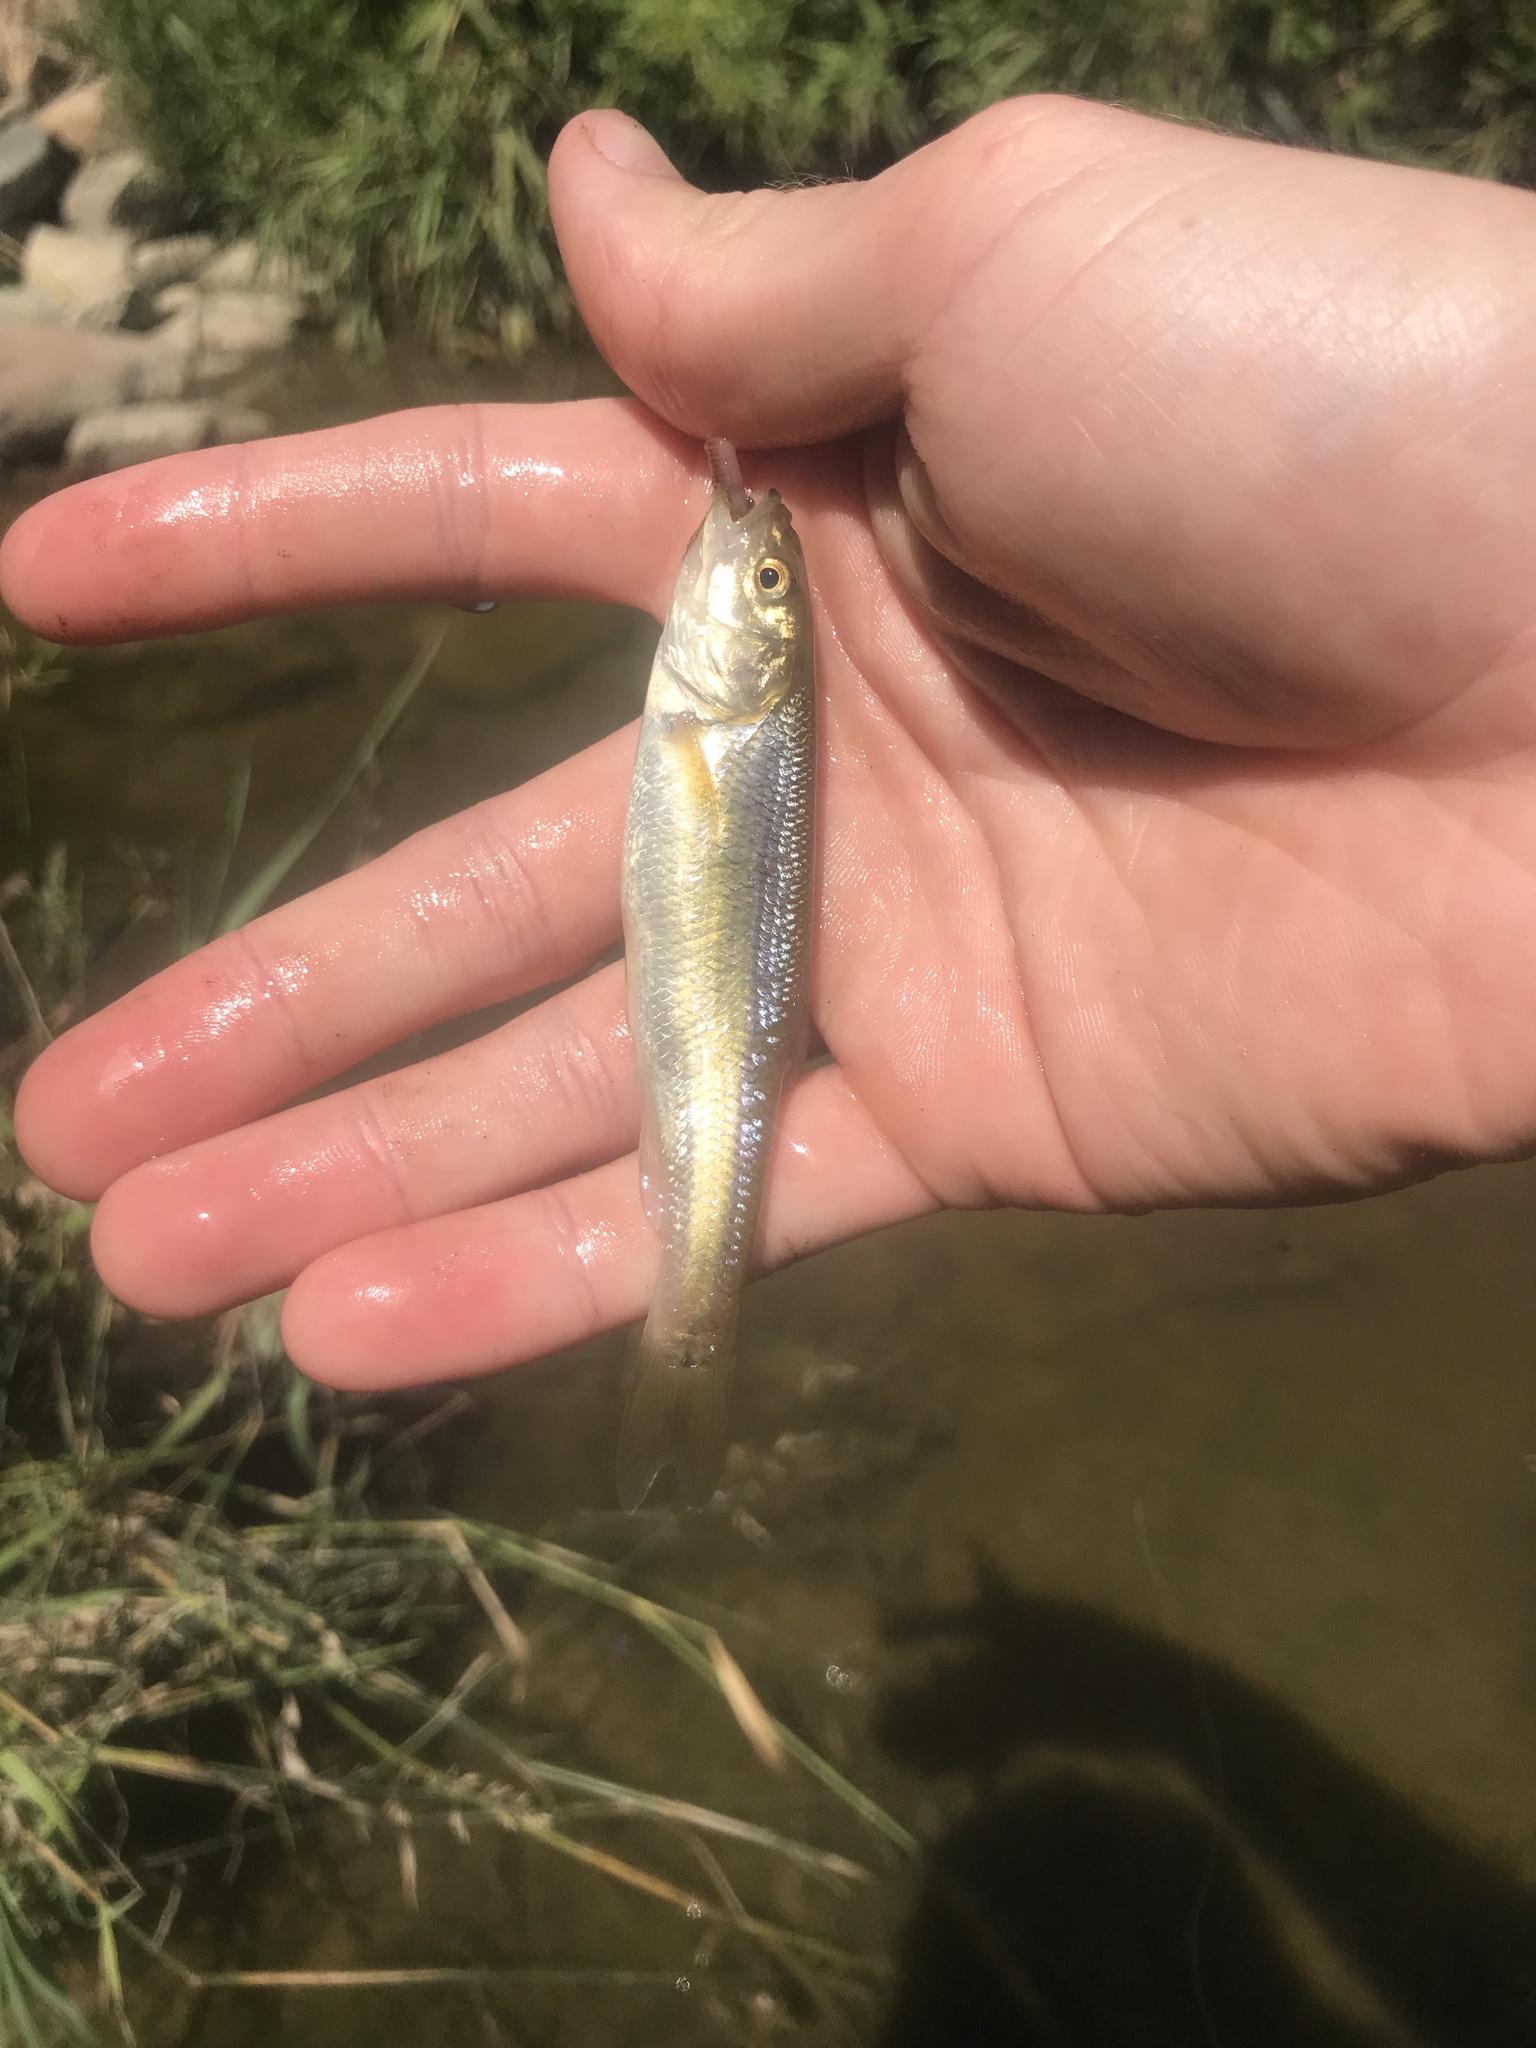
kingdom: Animalia
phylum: Chordata
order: Cypriniformes
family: Cyprinidae
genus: Semotilus
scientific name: Semotilus atromaculatus
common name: Creek chub
